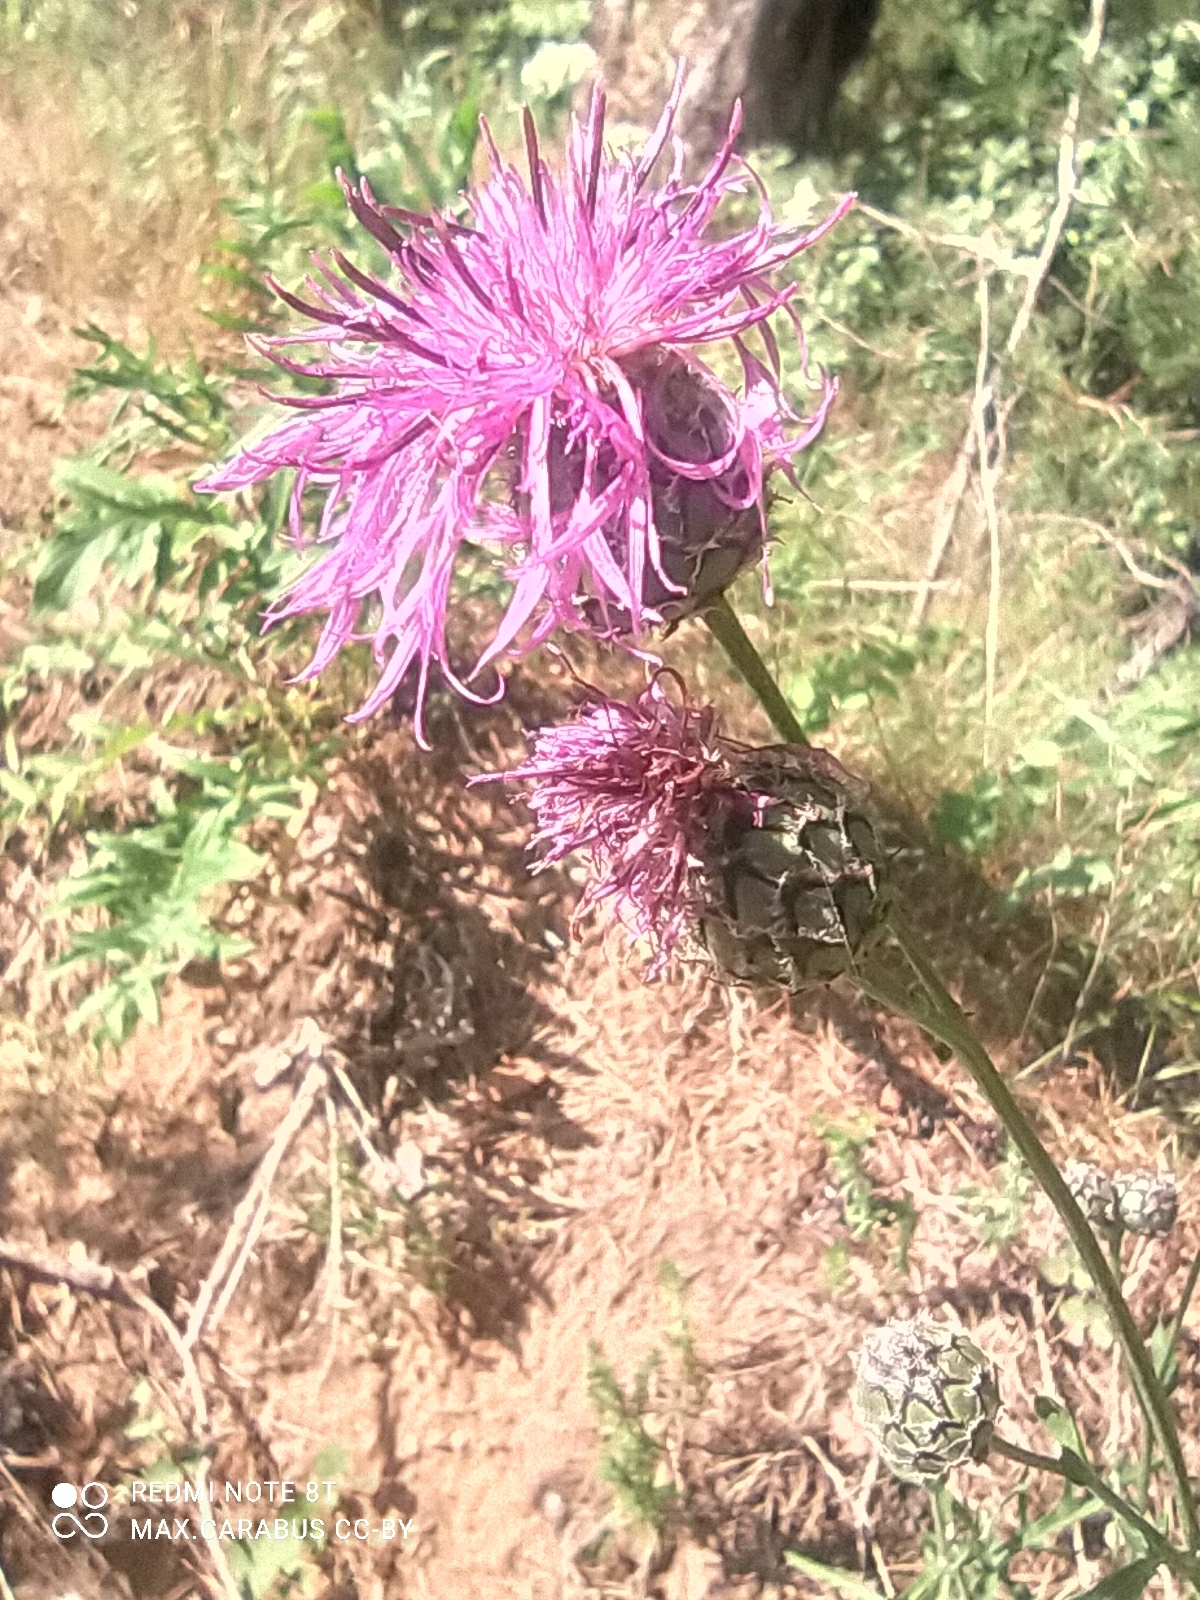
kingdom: Plantae
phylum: Tracheophyta
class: Magnoliopsida
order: Asterales
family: Asteraceae
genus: Centaurea
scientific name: Centaurea scabiosa
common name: Greater knapweed
